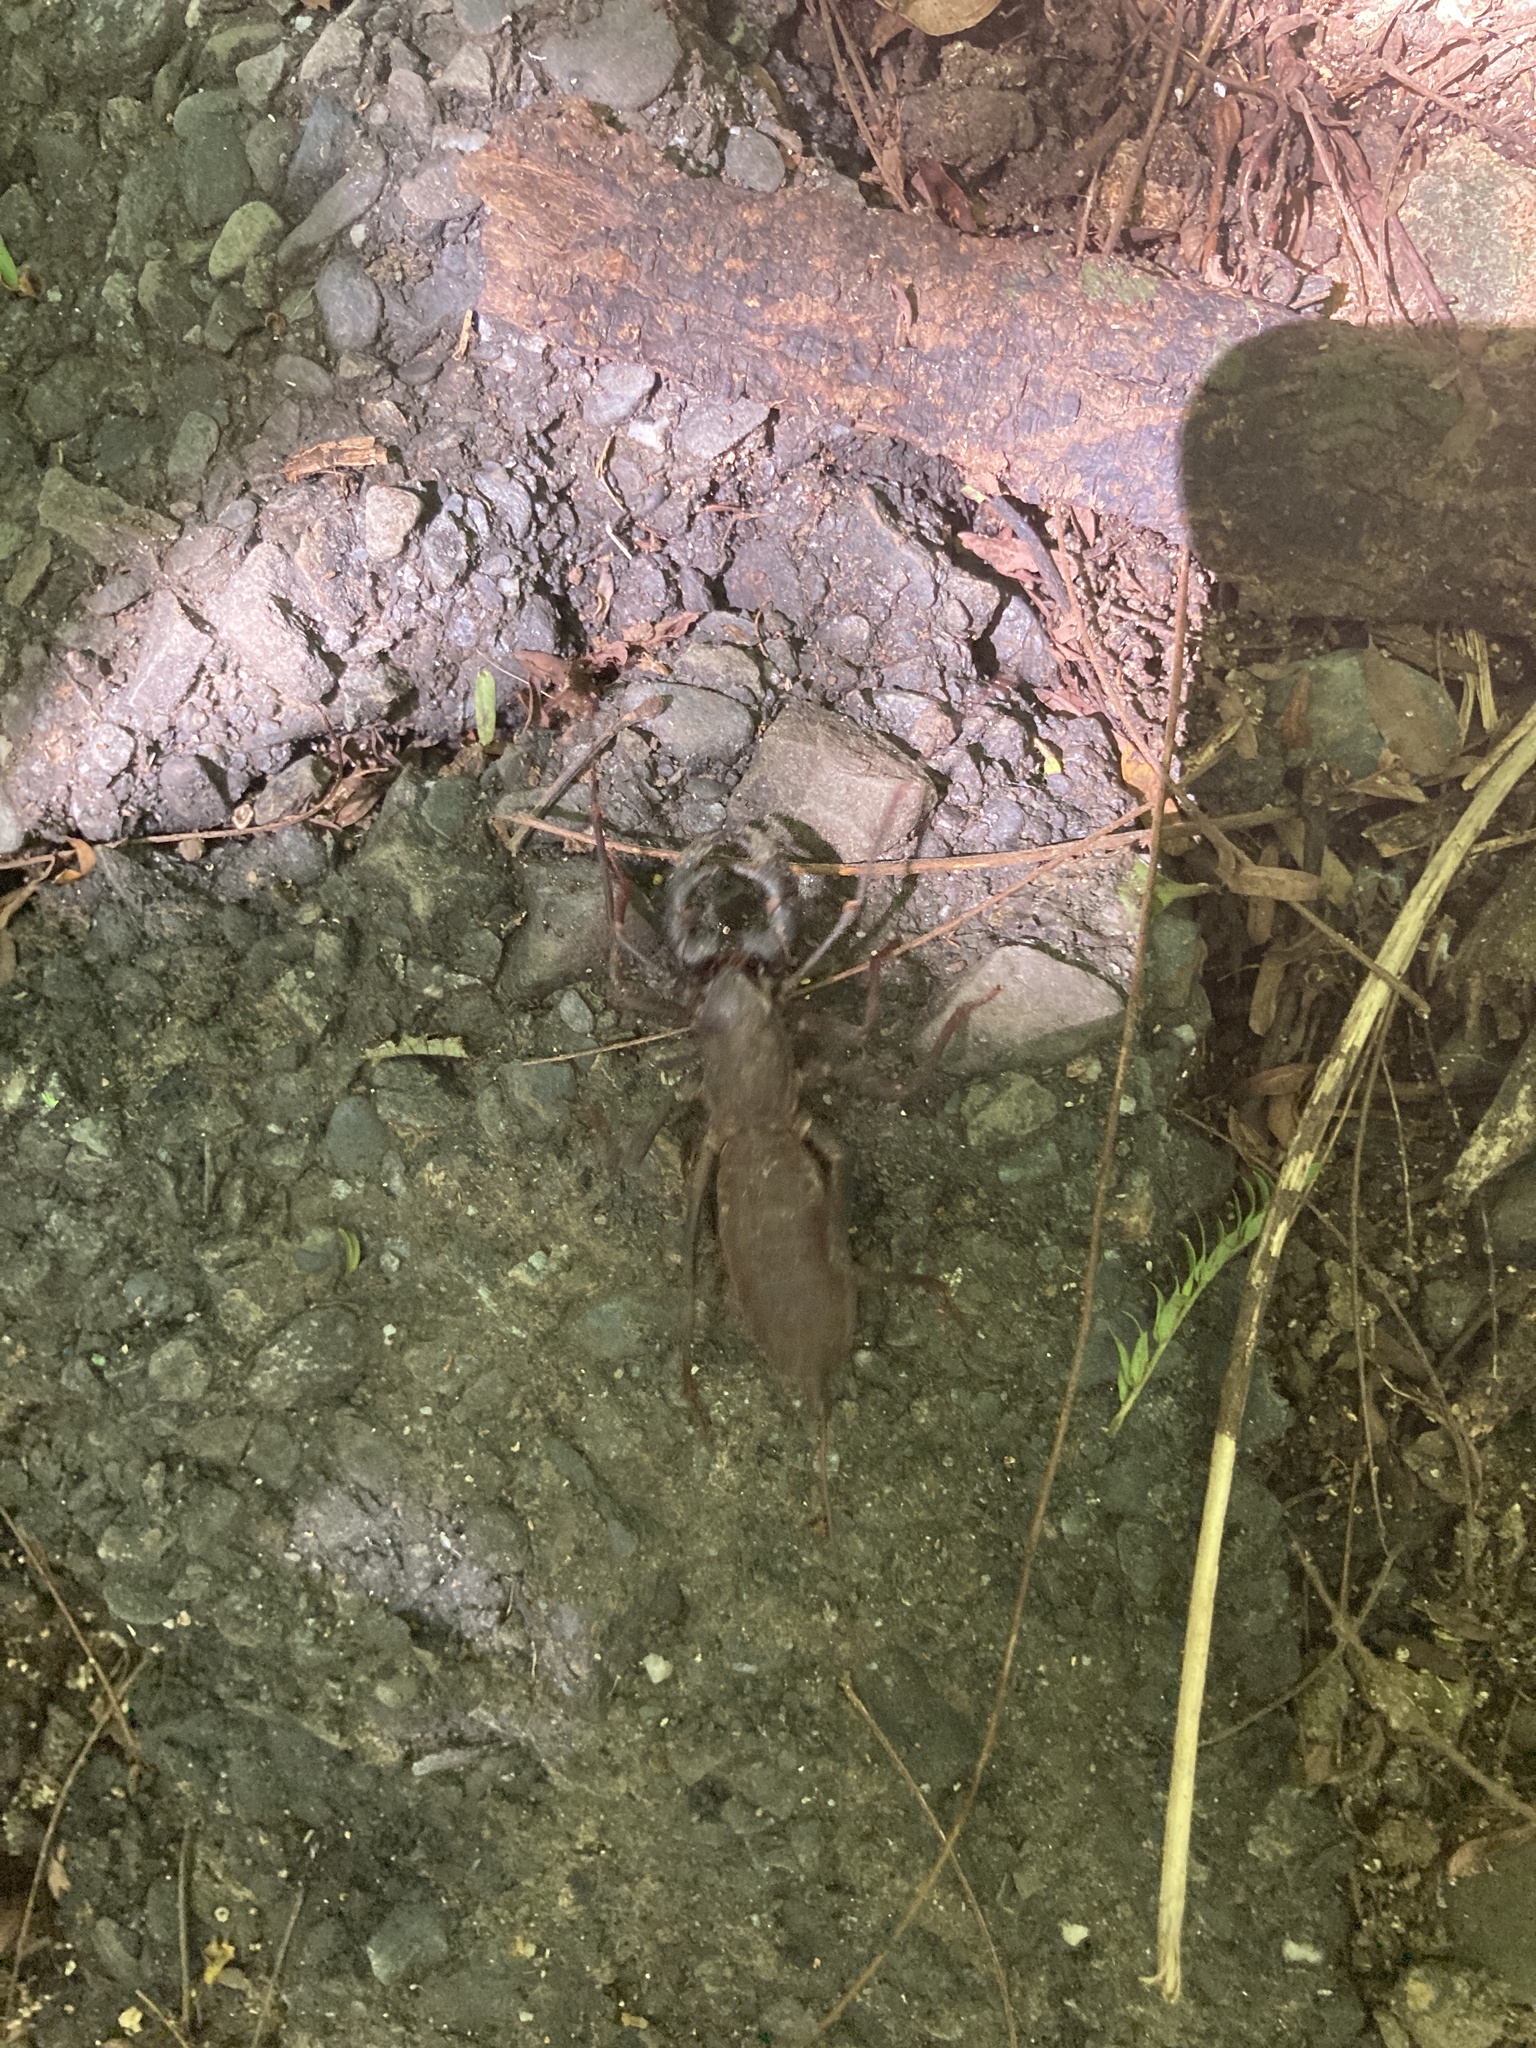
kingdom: Animalia
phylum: Arthropoda
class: Arachnida
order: Uropygi
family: Thelyphonidae
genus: Typopeltis
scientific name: Typopeltis crucifer
